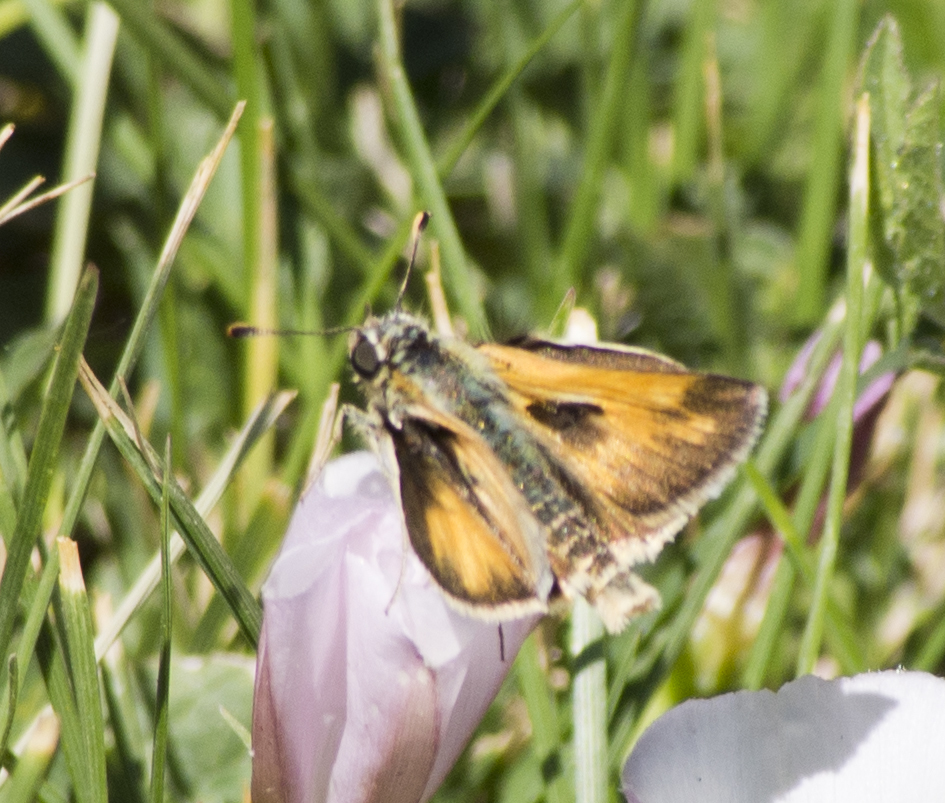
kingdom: Animalia
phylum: Arthropoda
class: Insecta
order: Lepidoptera
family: Hesperiidae
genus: Polites
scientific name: Polites sabuleti
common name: Sandhill skipper
